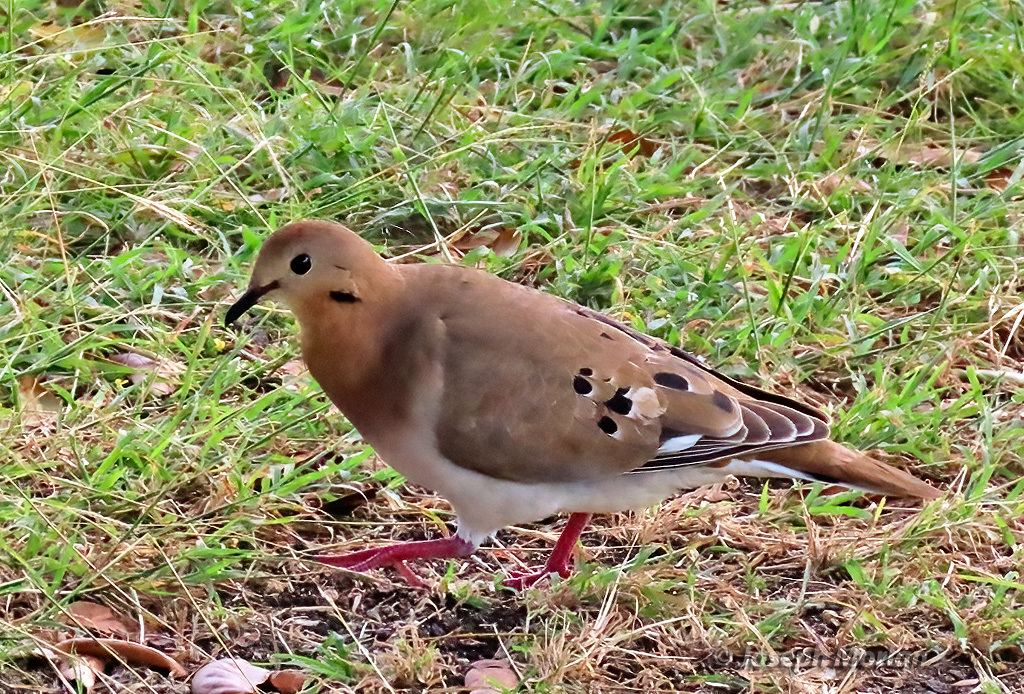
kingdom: Animalia
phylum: Chordata
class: Aves
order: Columbiformes
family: Columbidae
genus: Zenaida
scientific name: Zenaida aurita
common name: Zenaida dove
